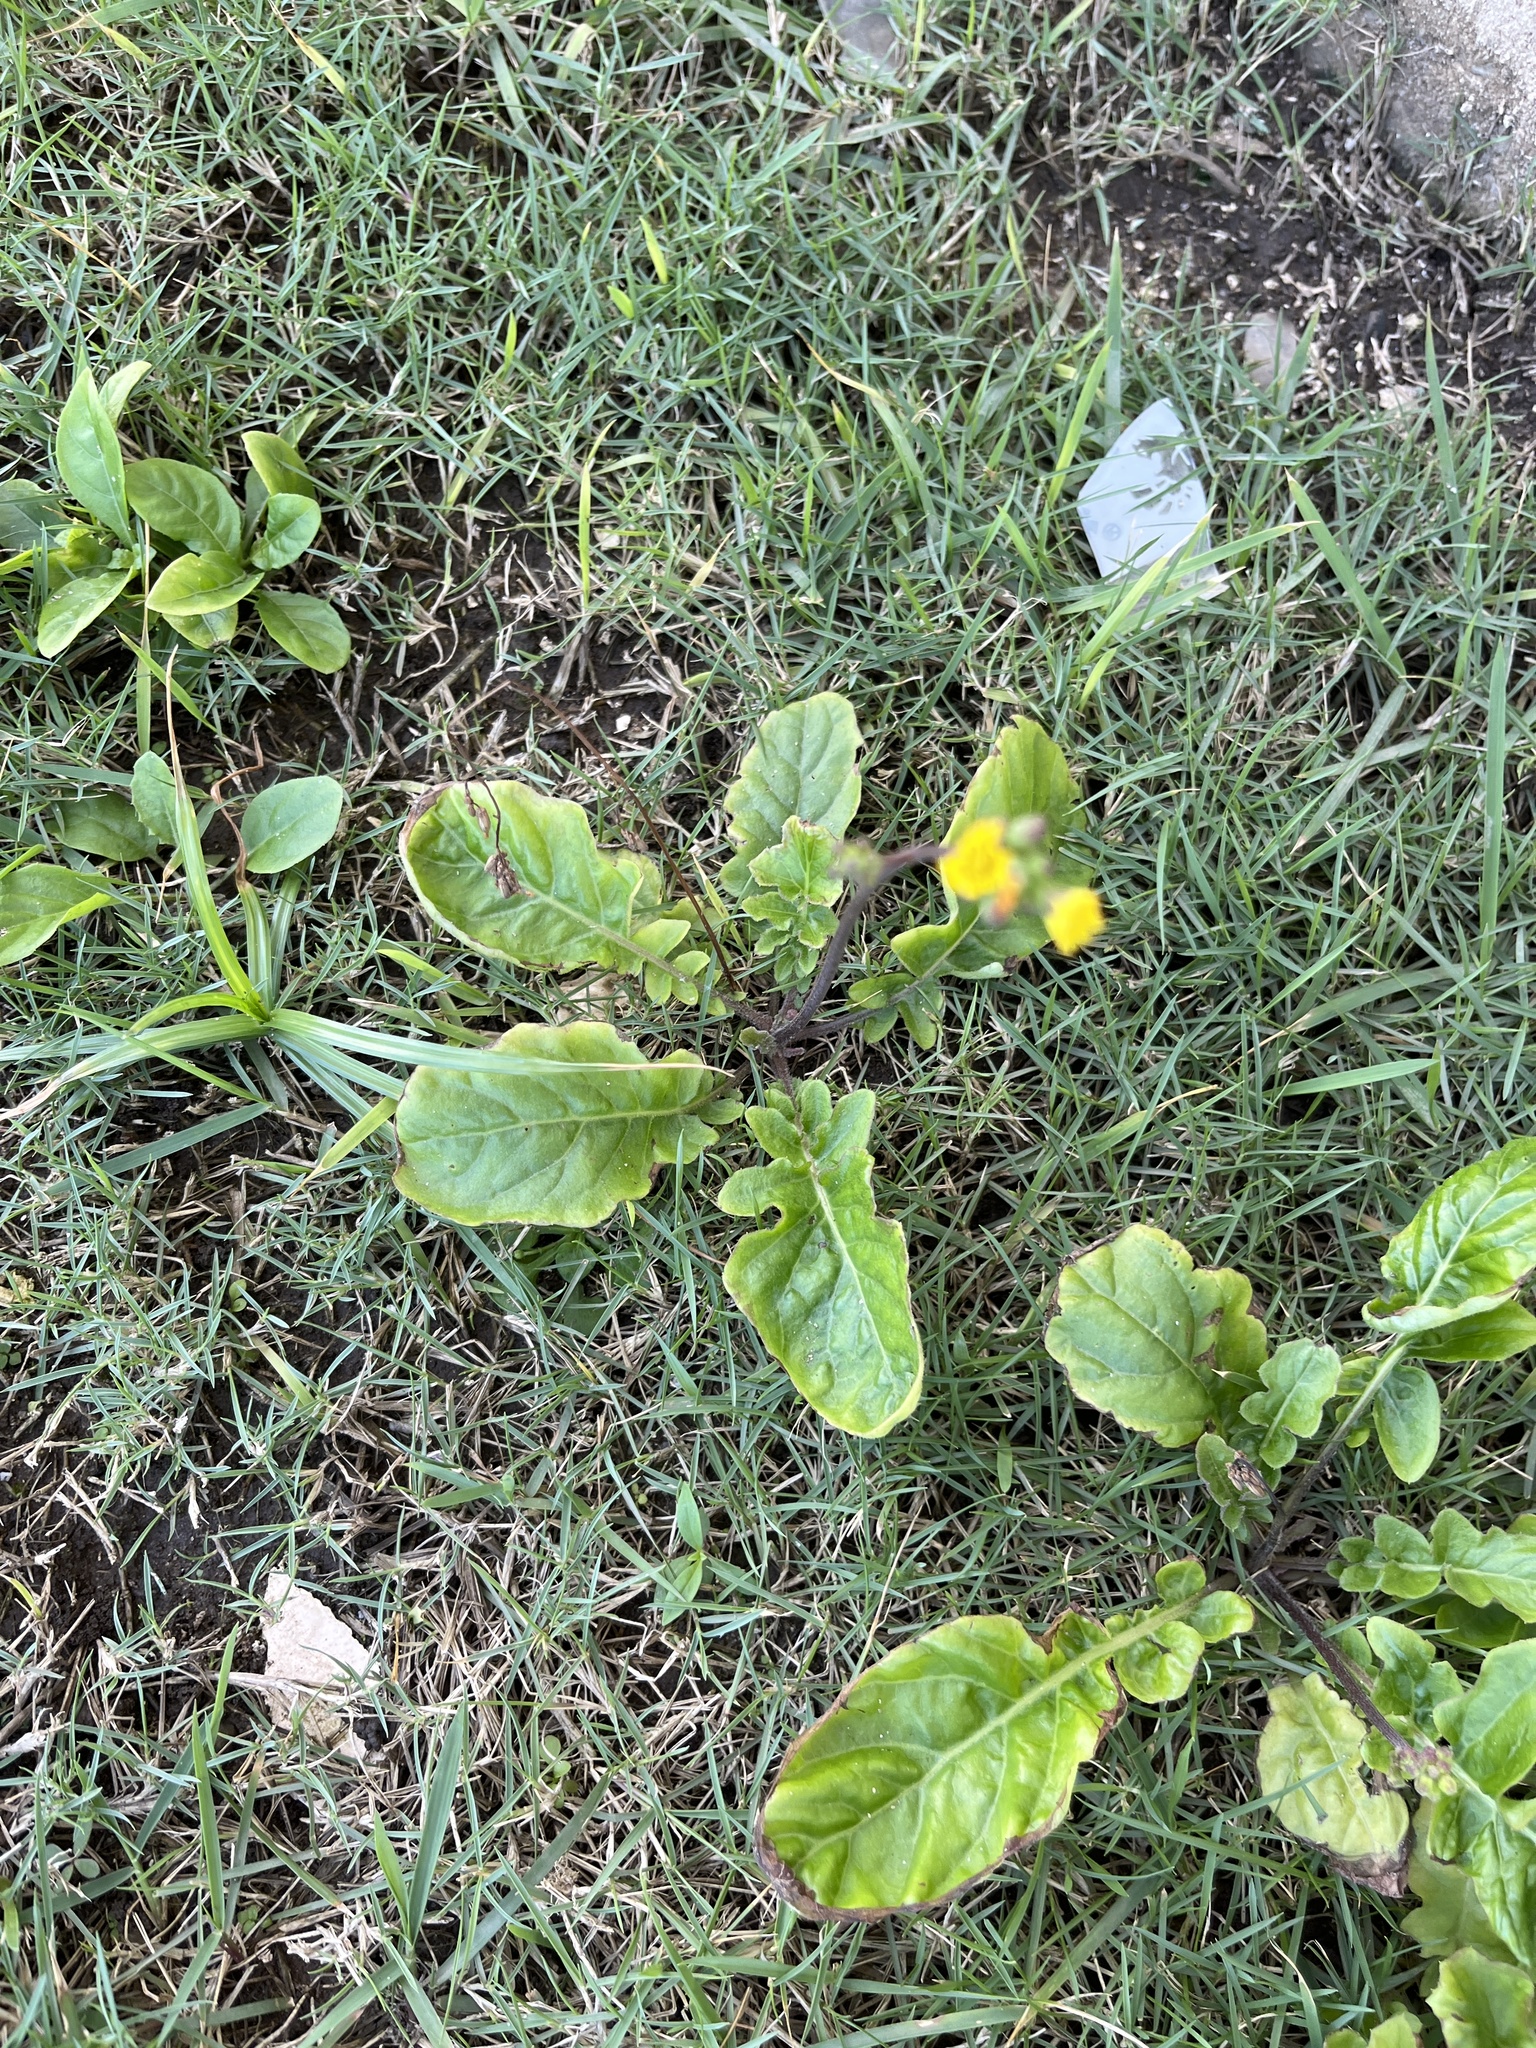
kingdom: Plantae
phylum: Tracheophyta
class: Magnoliopsida
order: Asterales
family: Asteraceae
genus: Youngia
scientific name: Youngia japonica
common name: Oriental false hawksbeard
